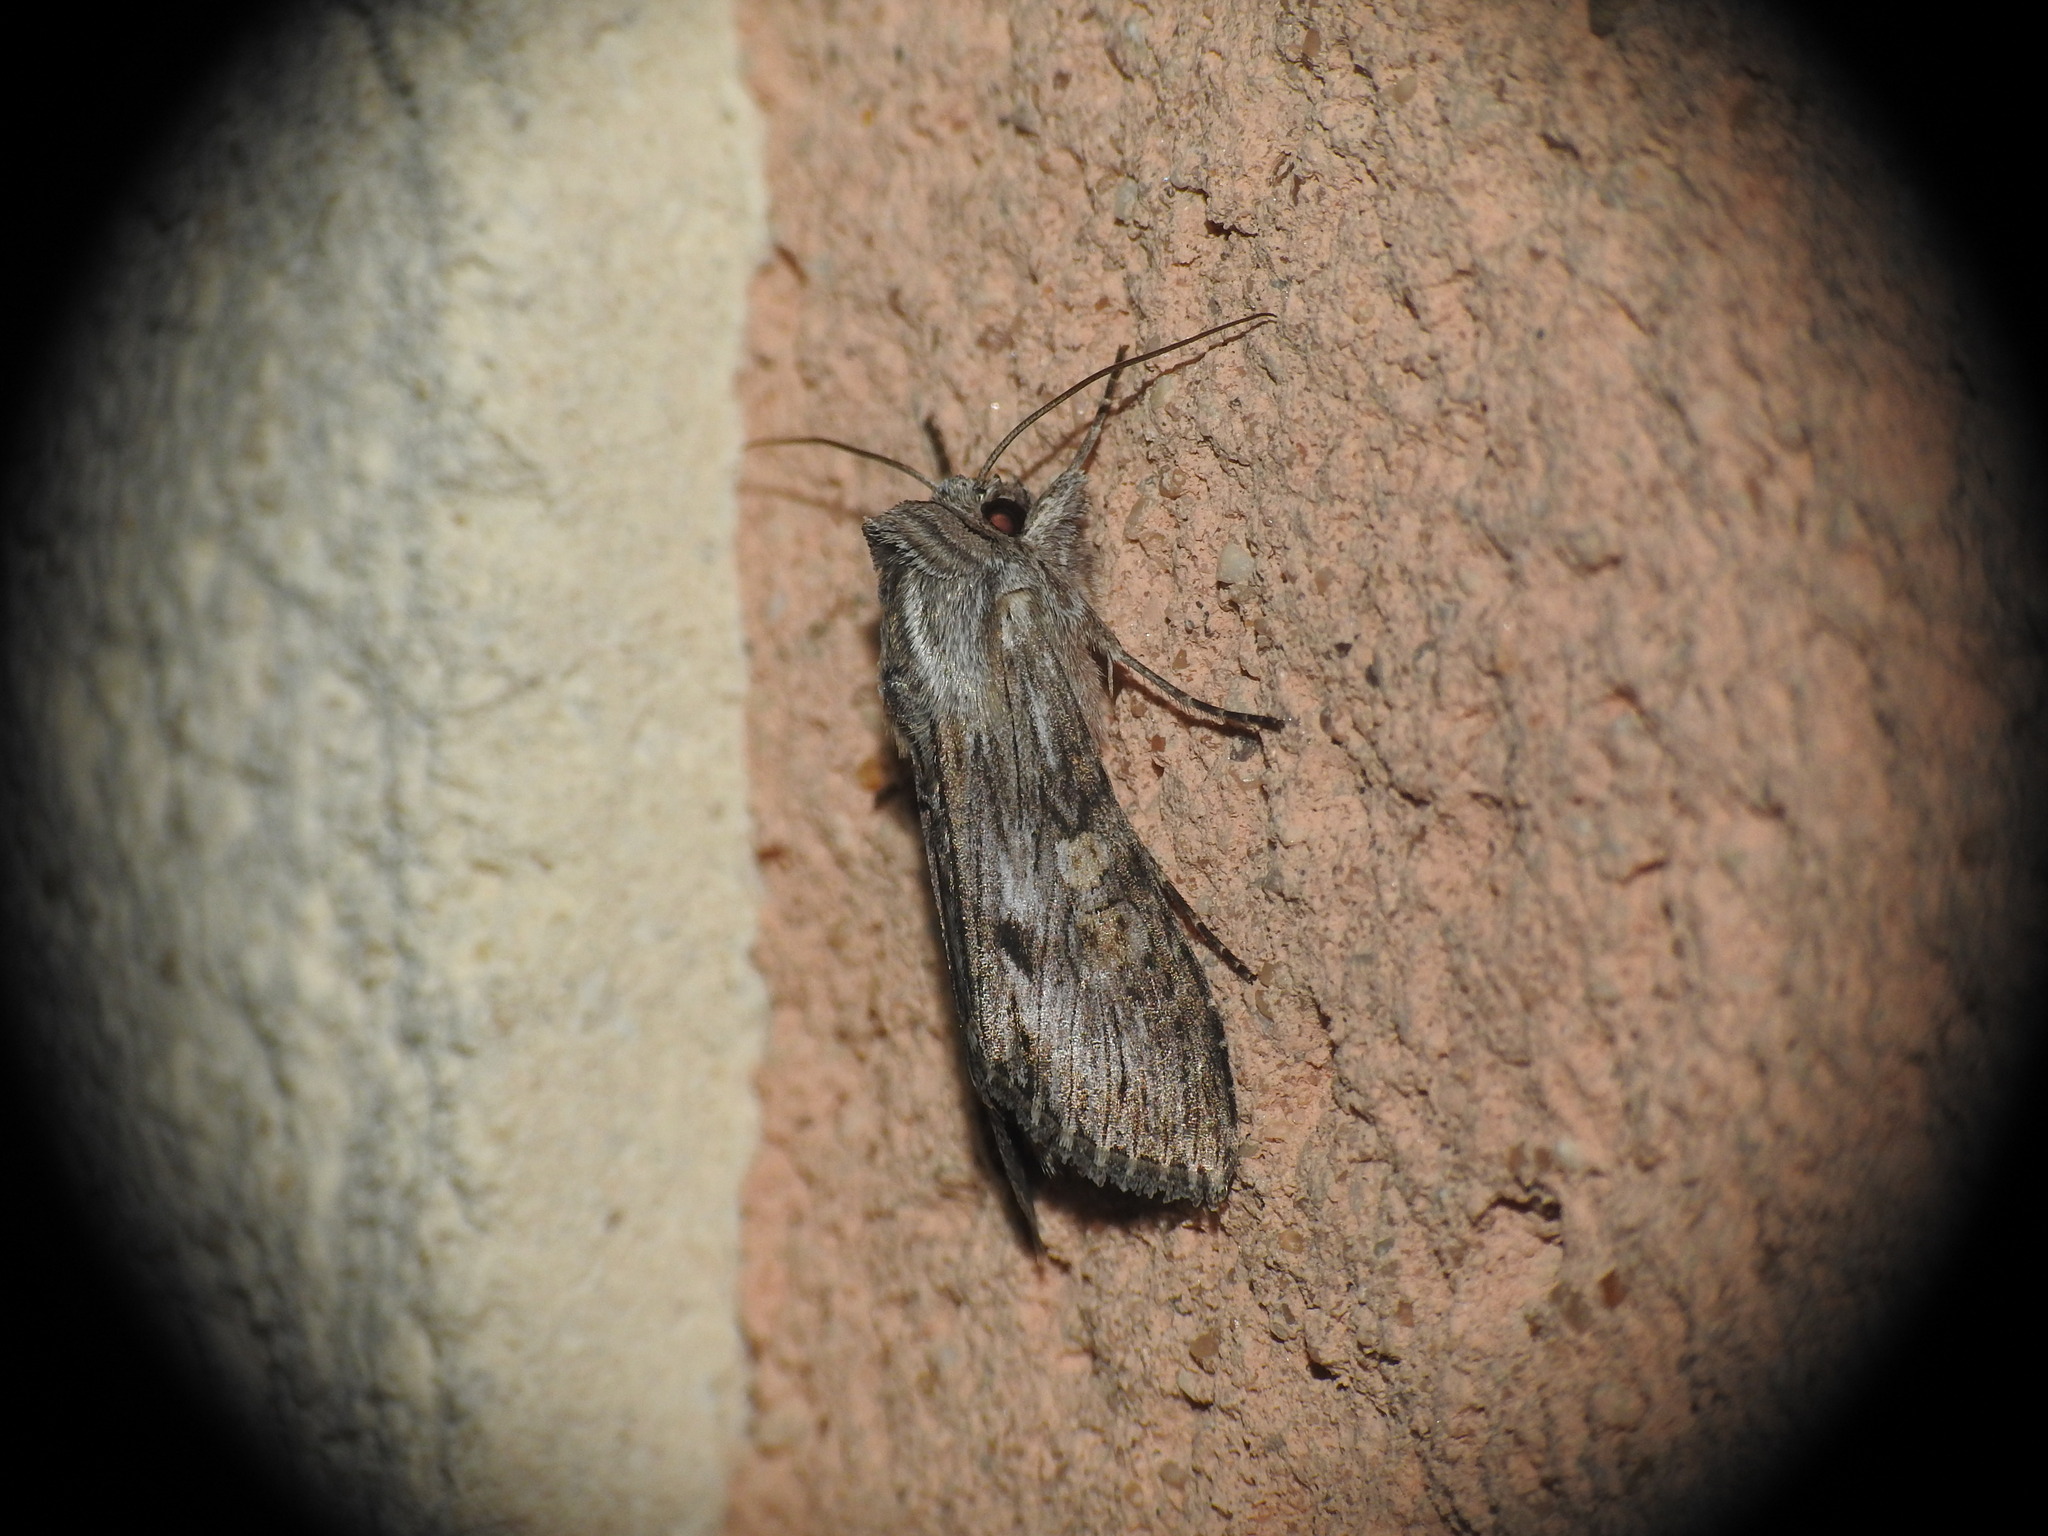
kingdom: Animalia
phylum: Arthropoda
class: Insecta
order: Lepidoptera
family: Noctuidae
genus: Cucullia
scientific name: Cucullia xeranthemi
